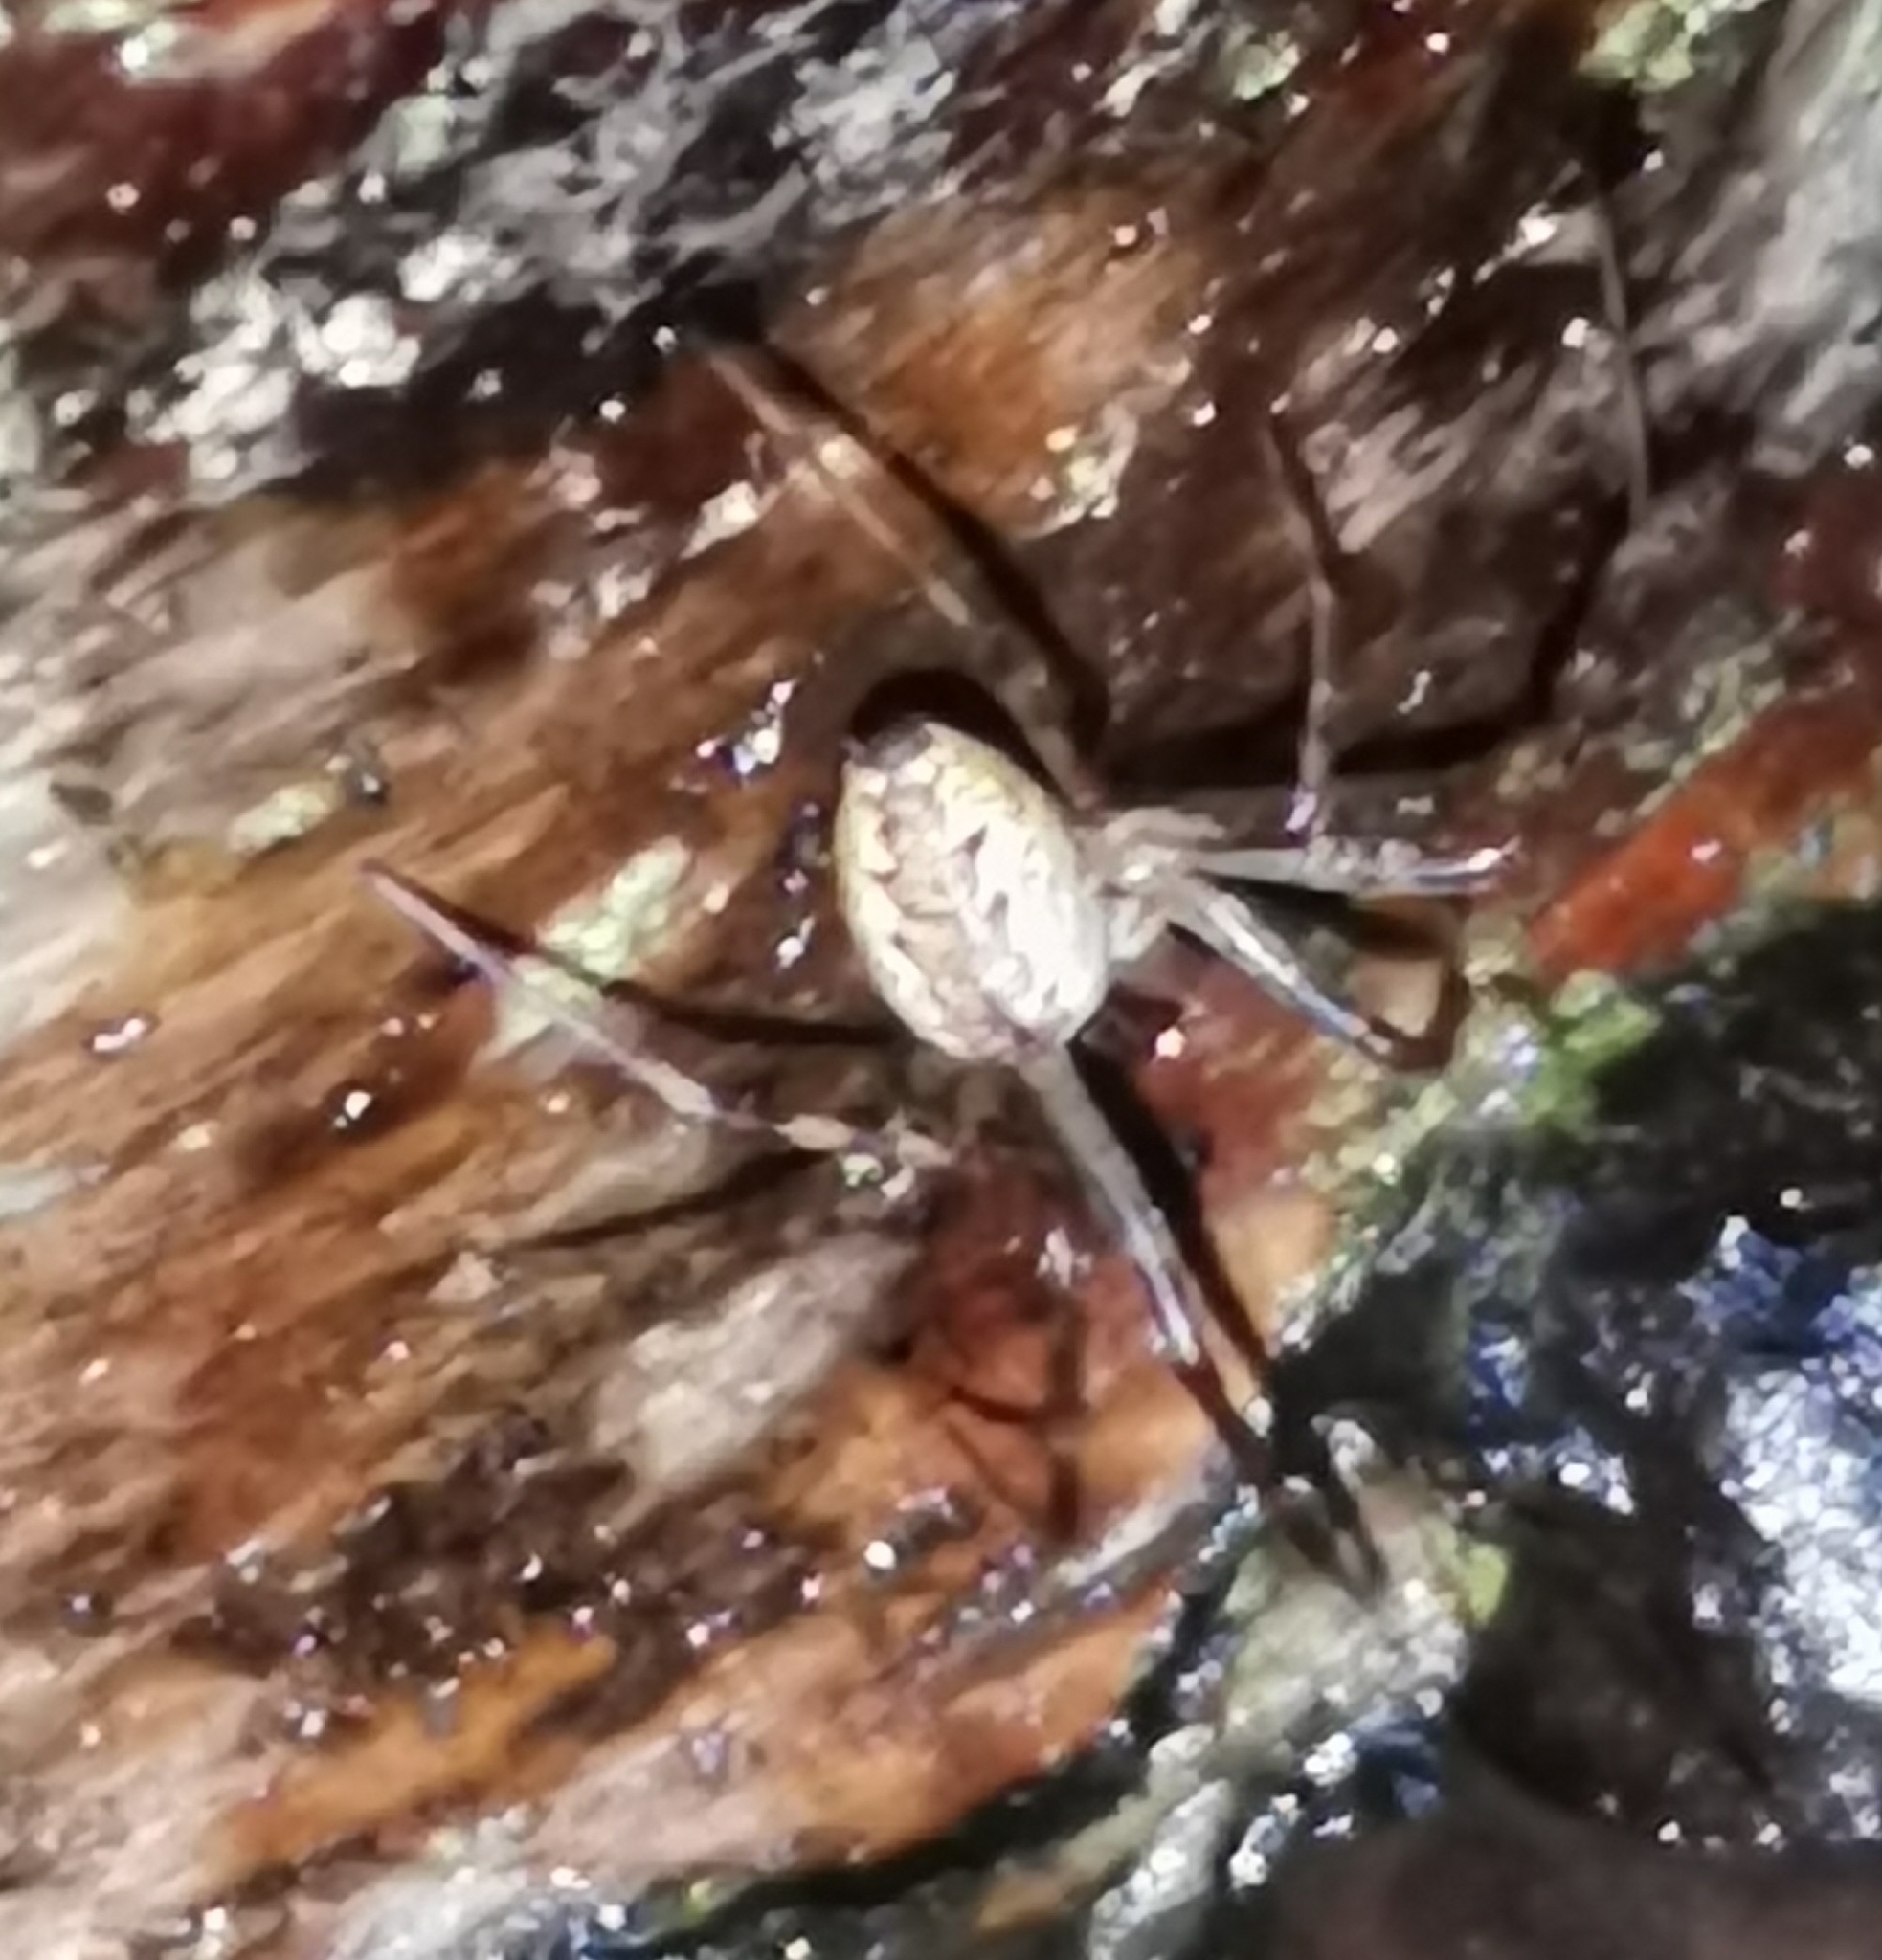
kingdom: Animalia
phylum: Arthropoda
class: Arachnida
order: Araneae
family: Linyphiidae
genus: Pityohyphantes
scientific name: Pityohyphantes phrygianus
